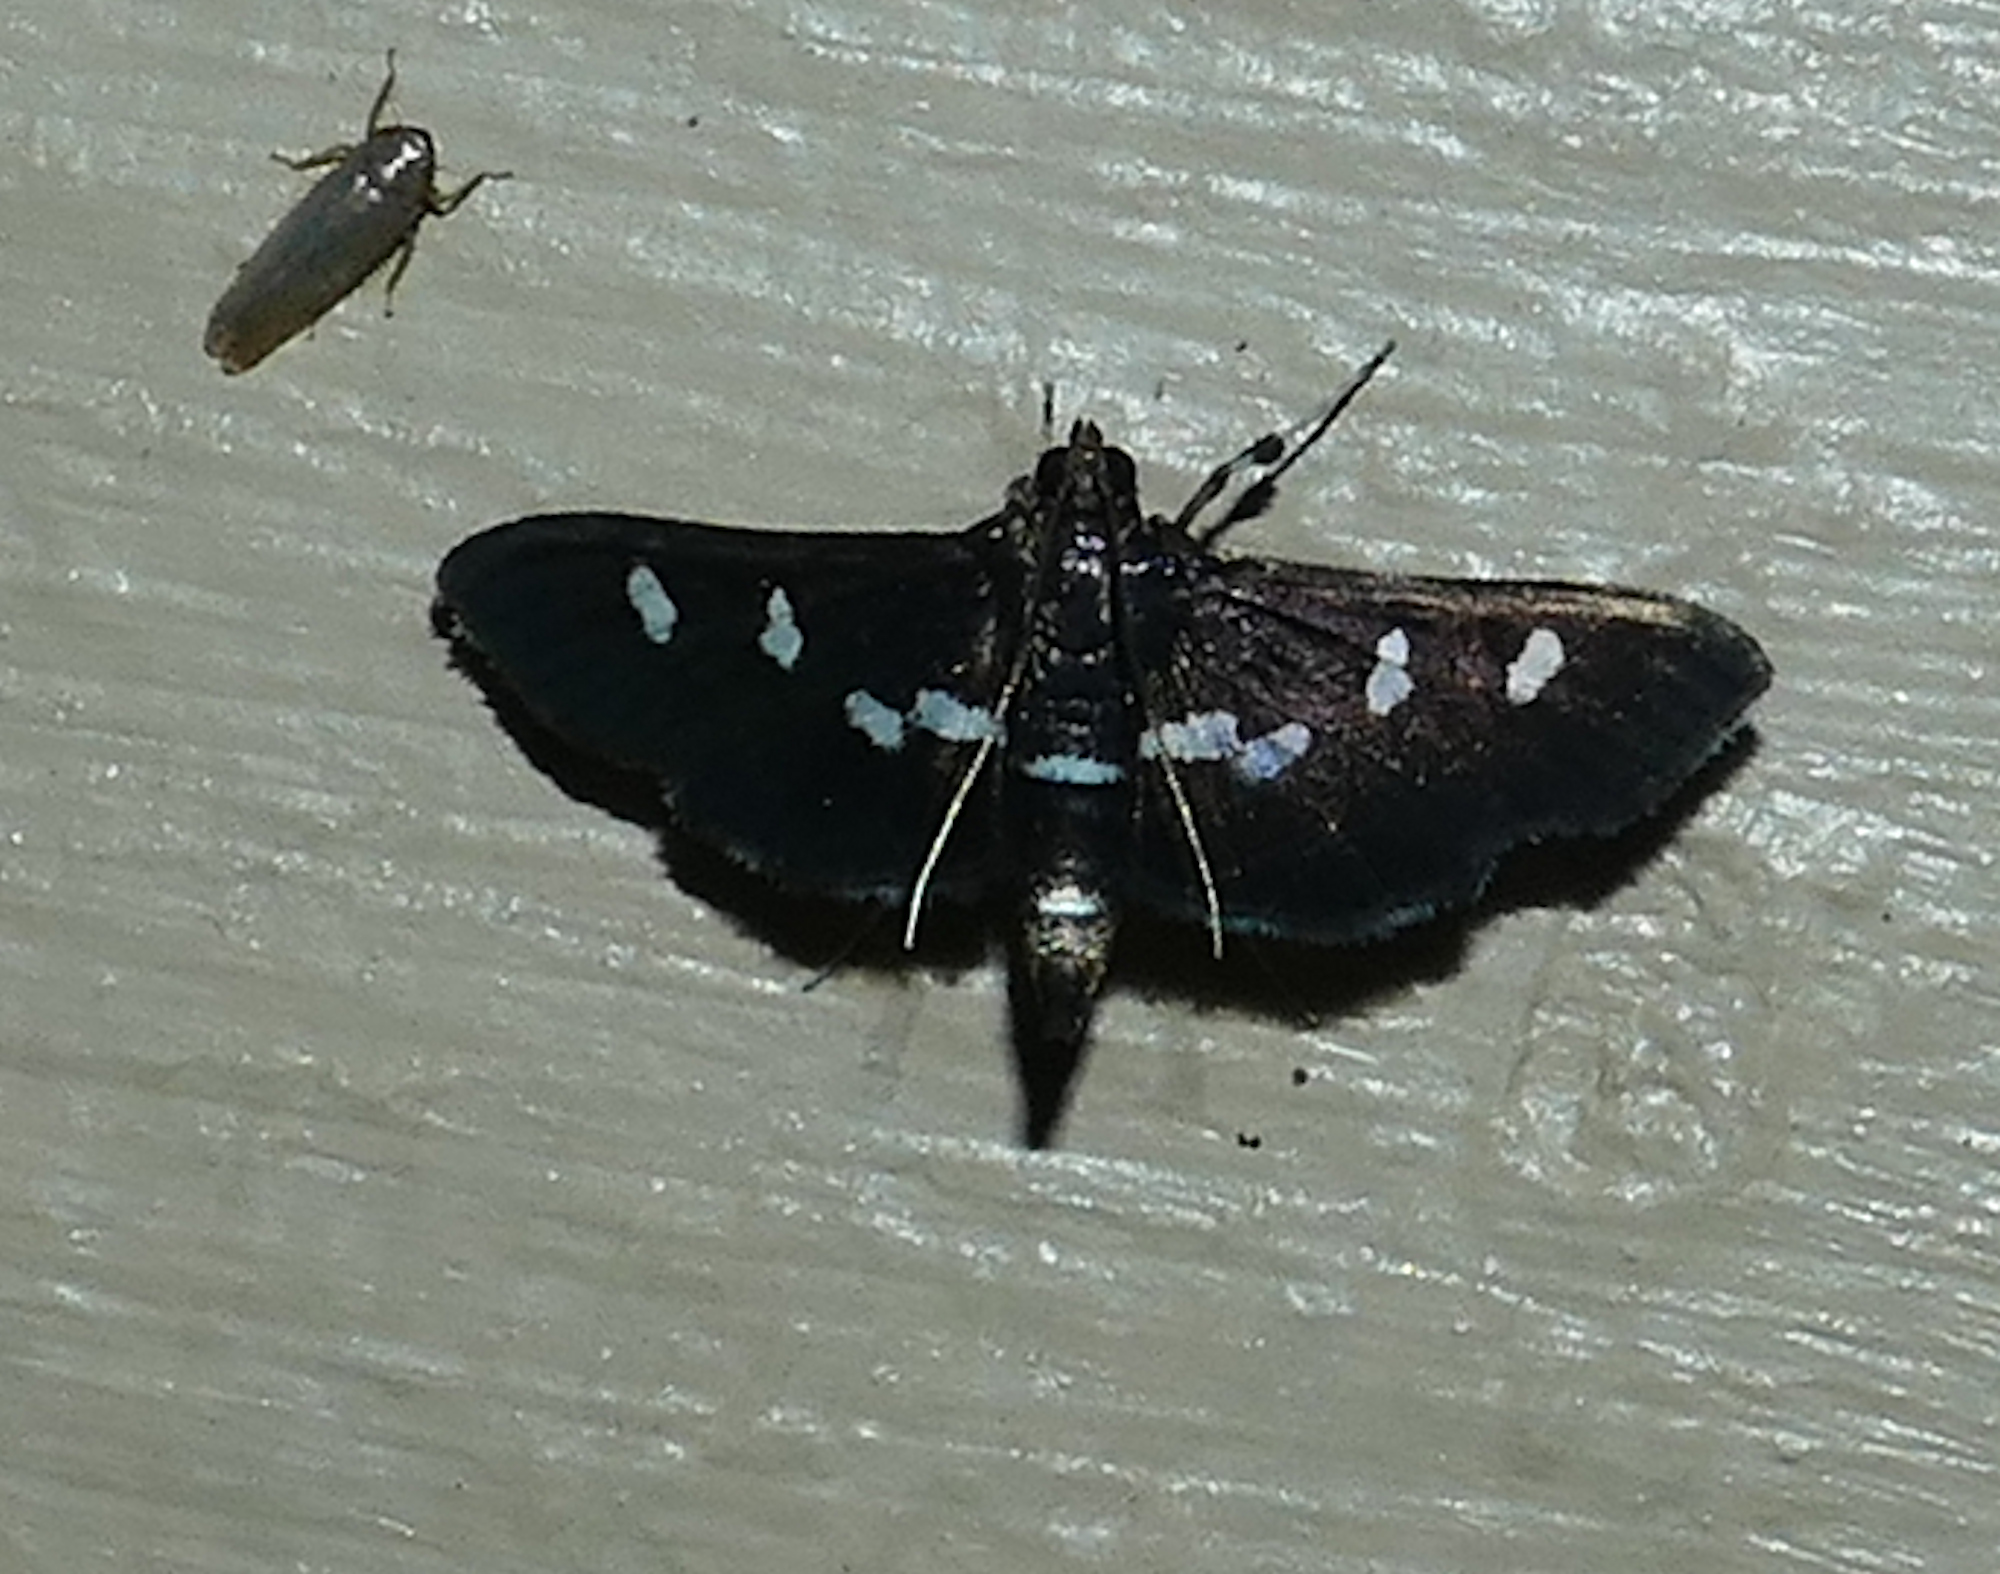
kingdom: Animalia
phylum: Arthropoda
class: Insecta
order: Lepidoptera
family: Crambidae
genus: Desmia
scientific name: Desmia funeralis
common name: Grape leaf folder moth
